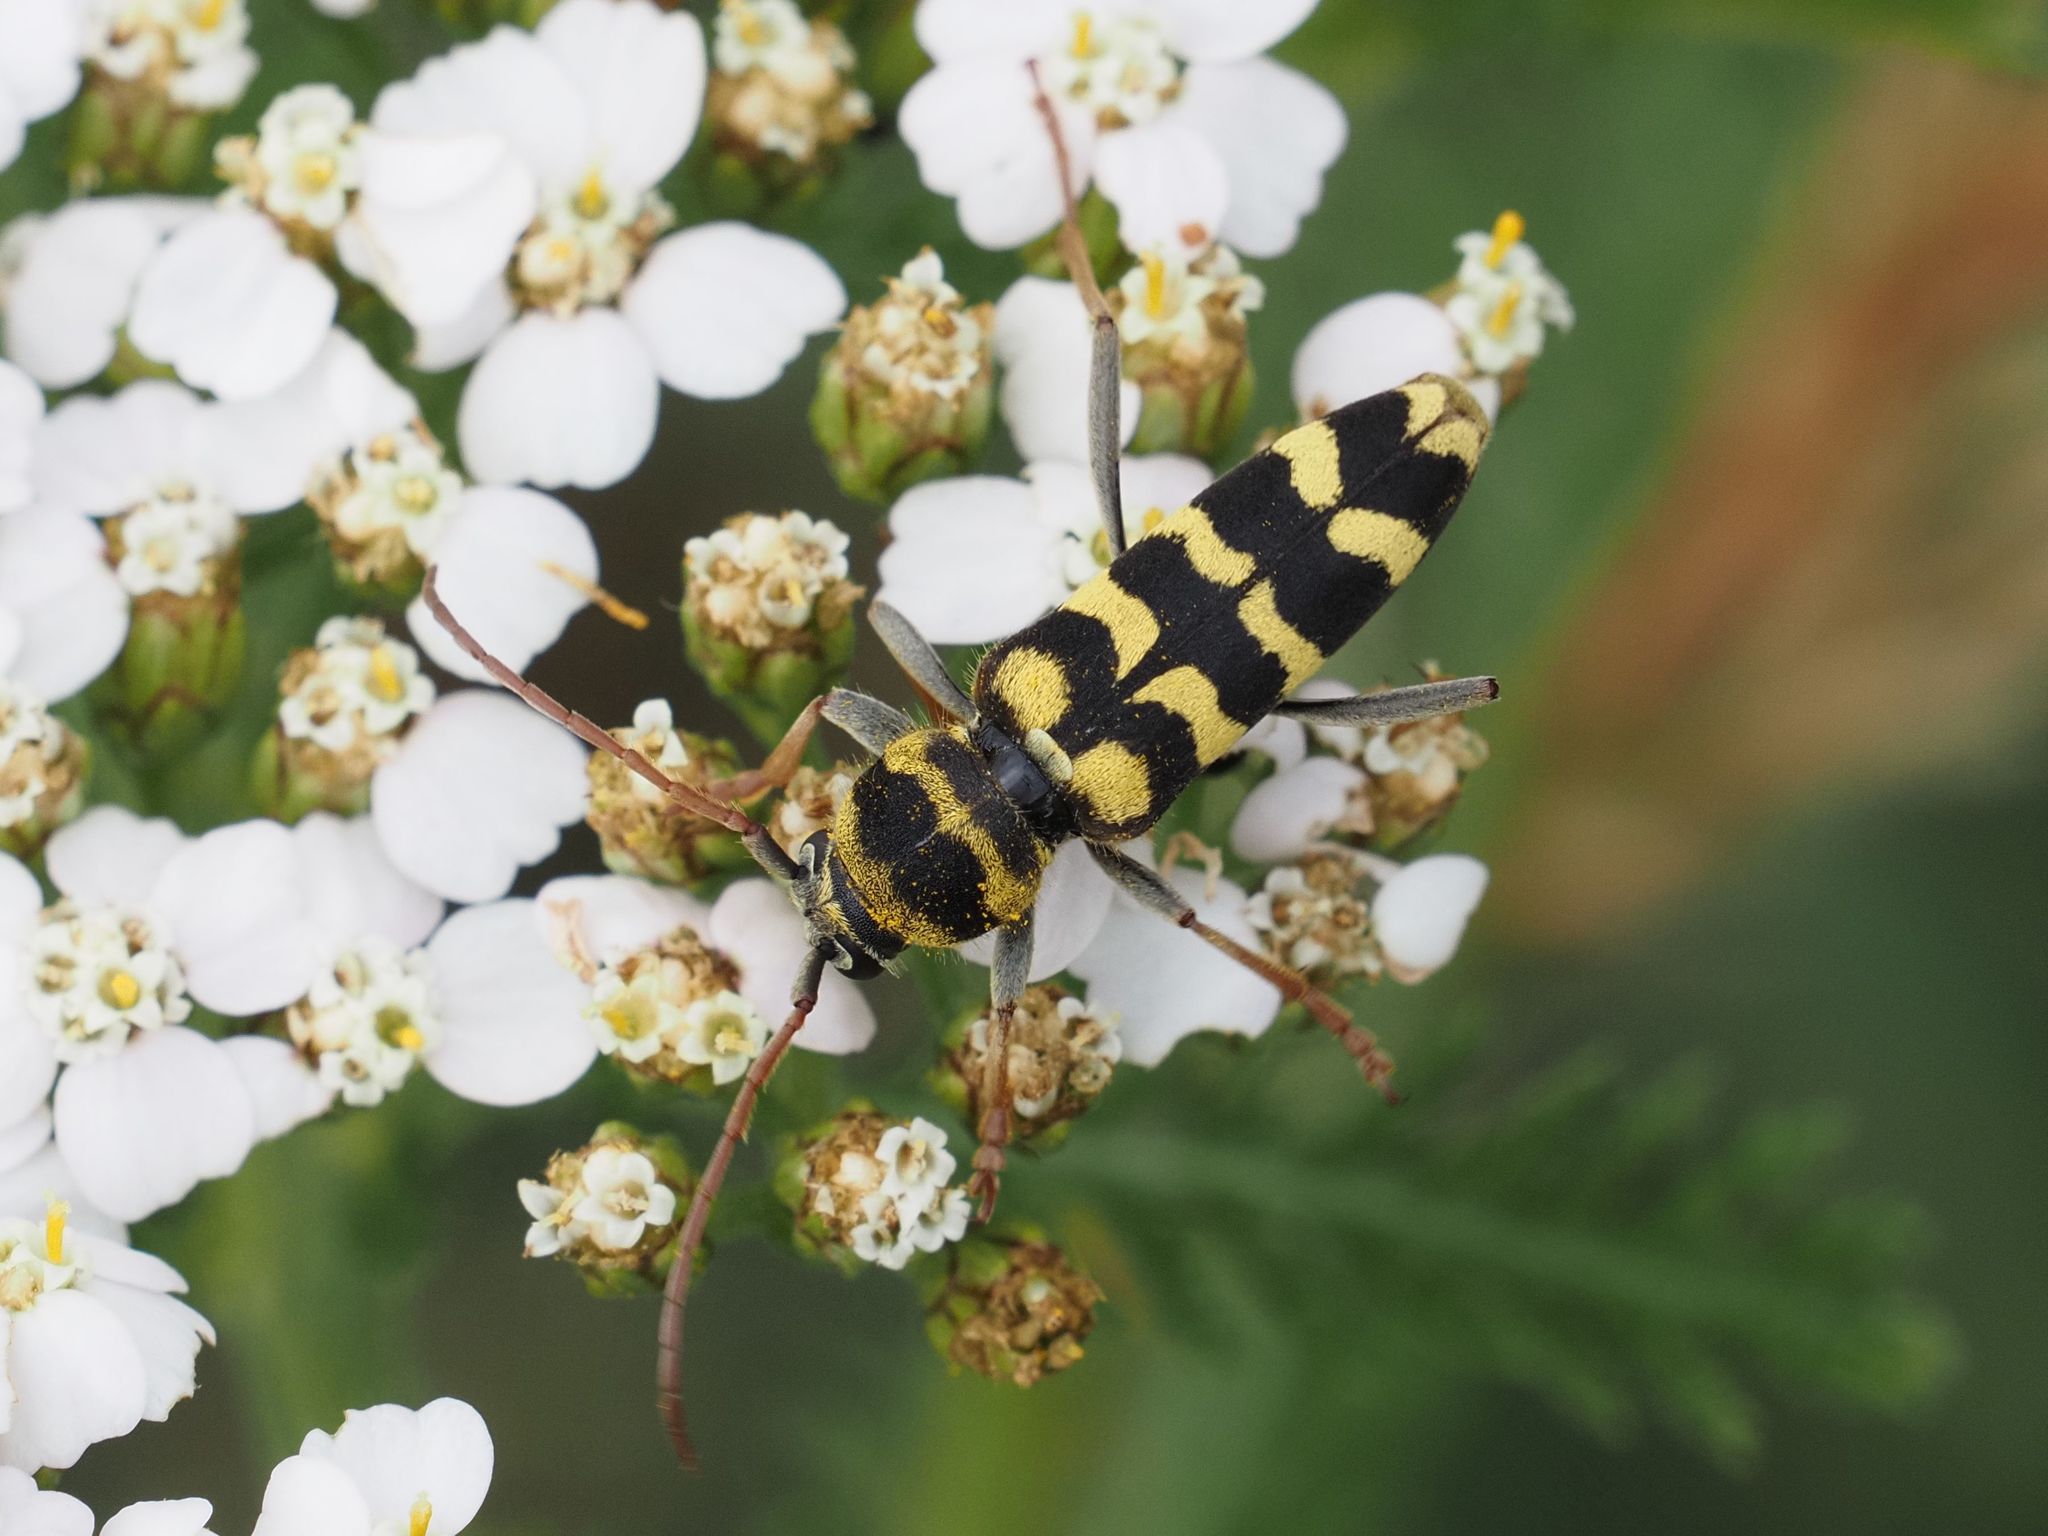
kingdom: Animalia
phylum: Arthropoda
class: Insecta
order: Coleoptera
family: Cerambycidae
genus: Plagionotus
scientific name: Plagionotus floralis
